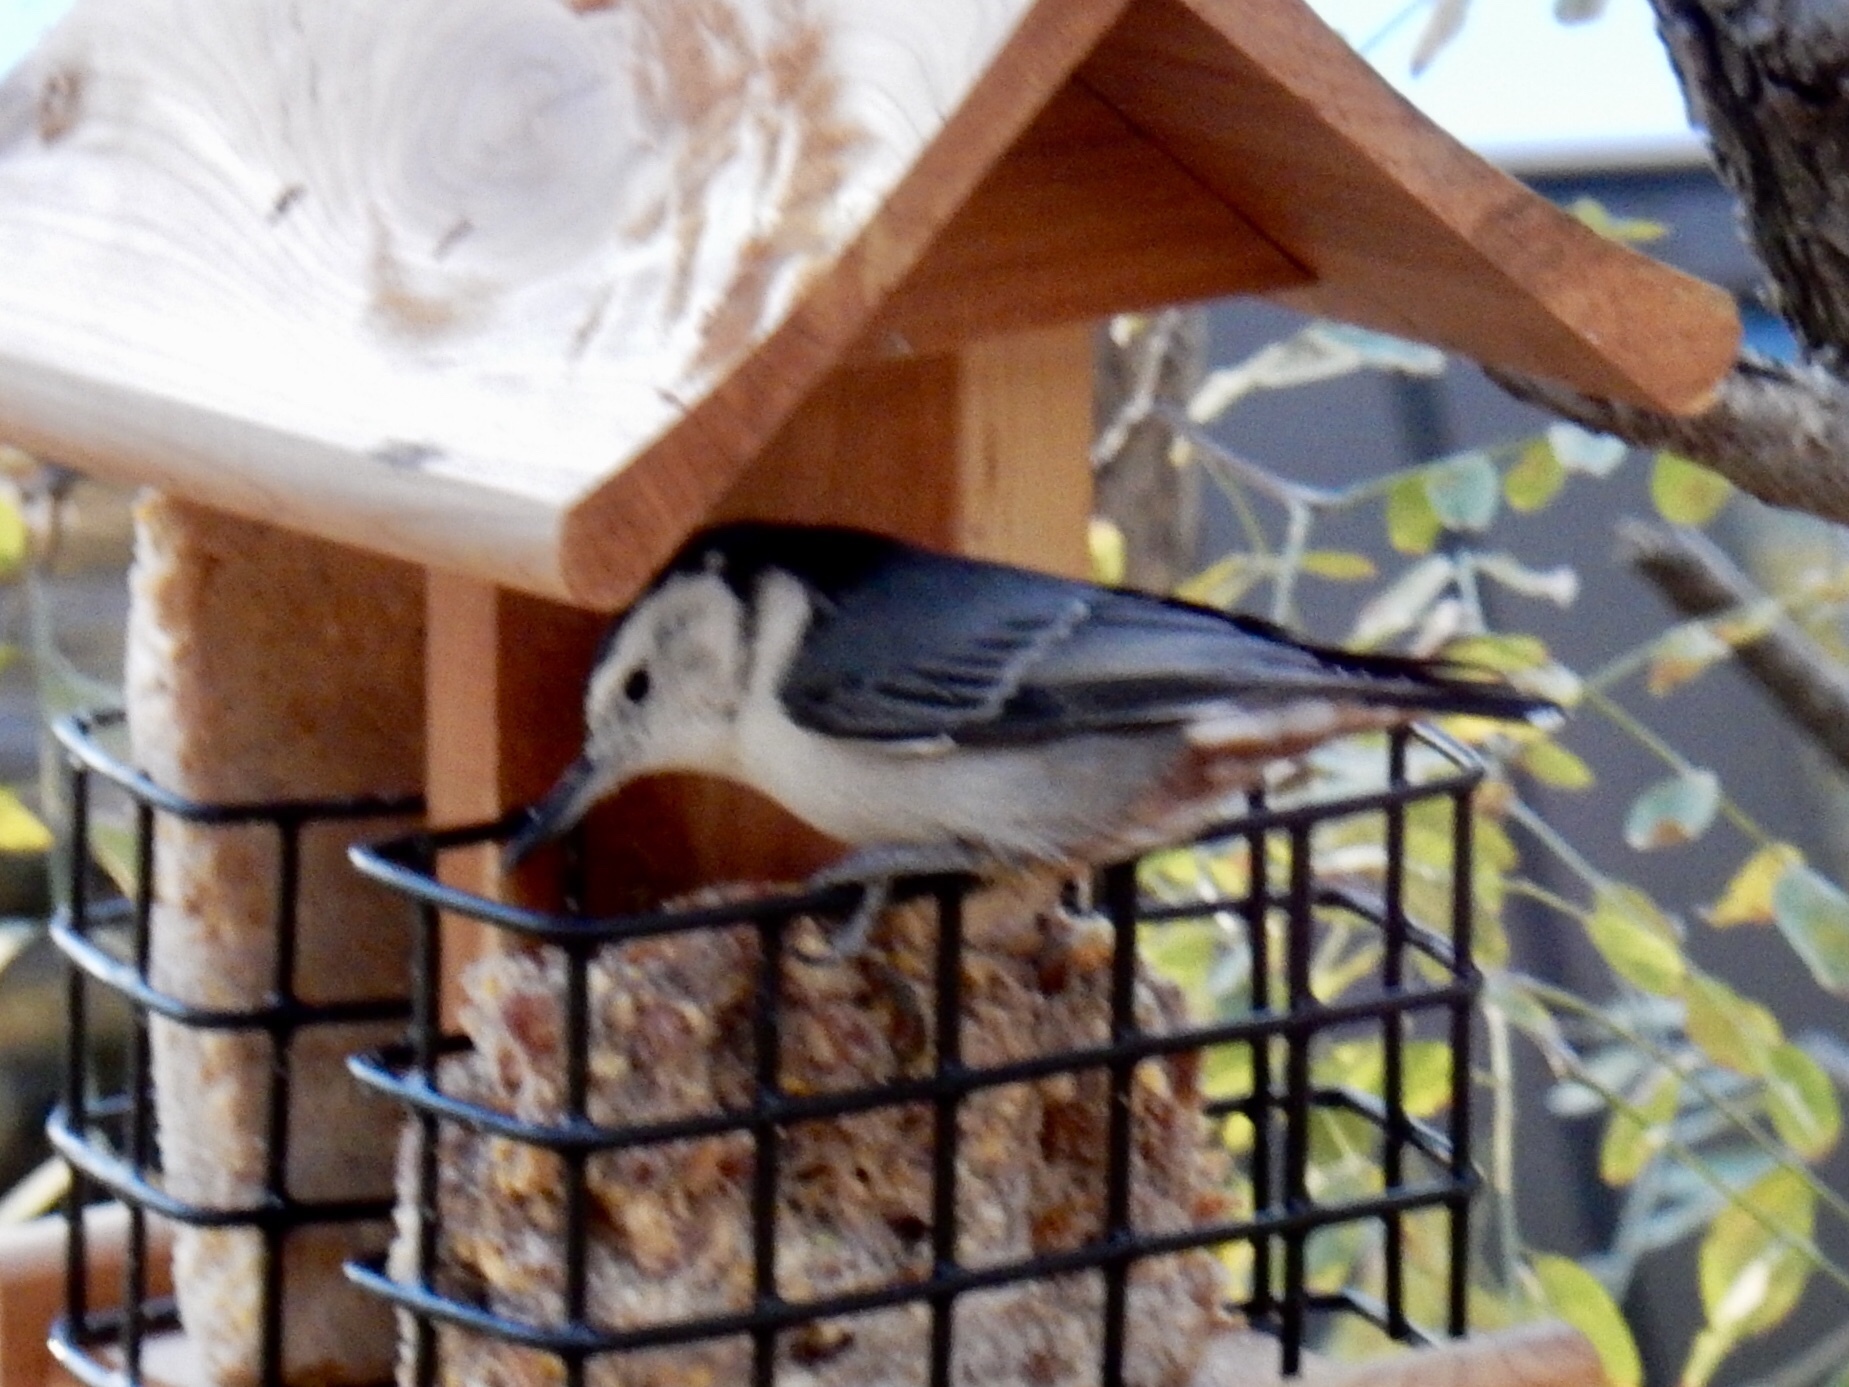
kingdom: Animalia
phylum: Chordata
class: Aves
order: Passeriformes
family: Sittidae
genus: Sitta
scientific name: Sitta carolinensis
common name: White-breasted nuthatch
